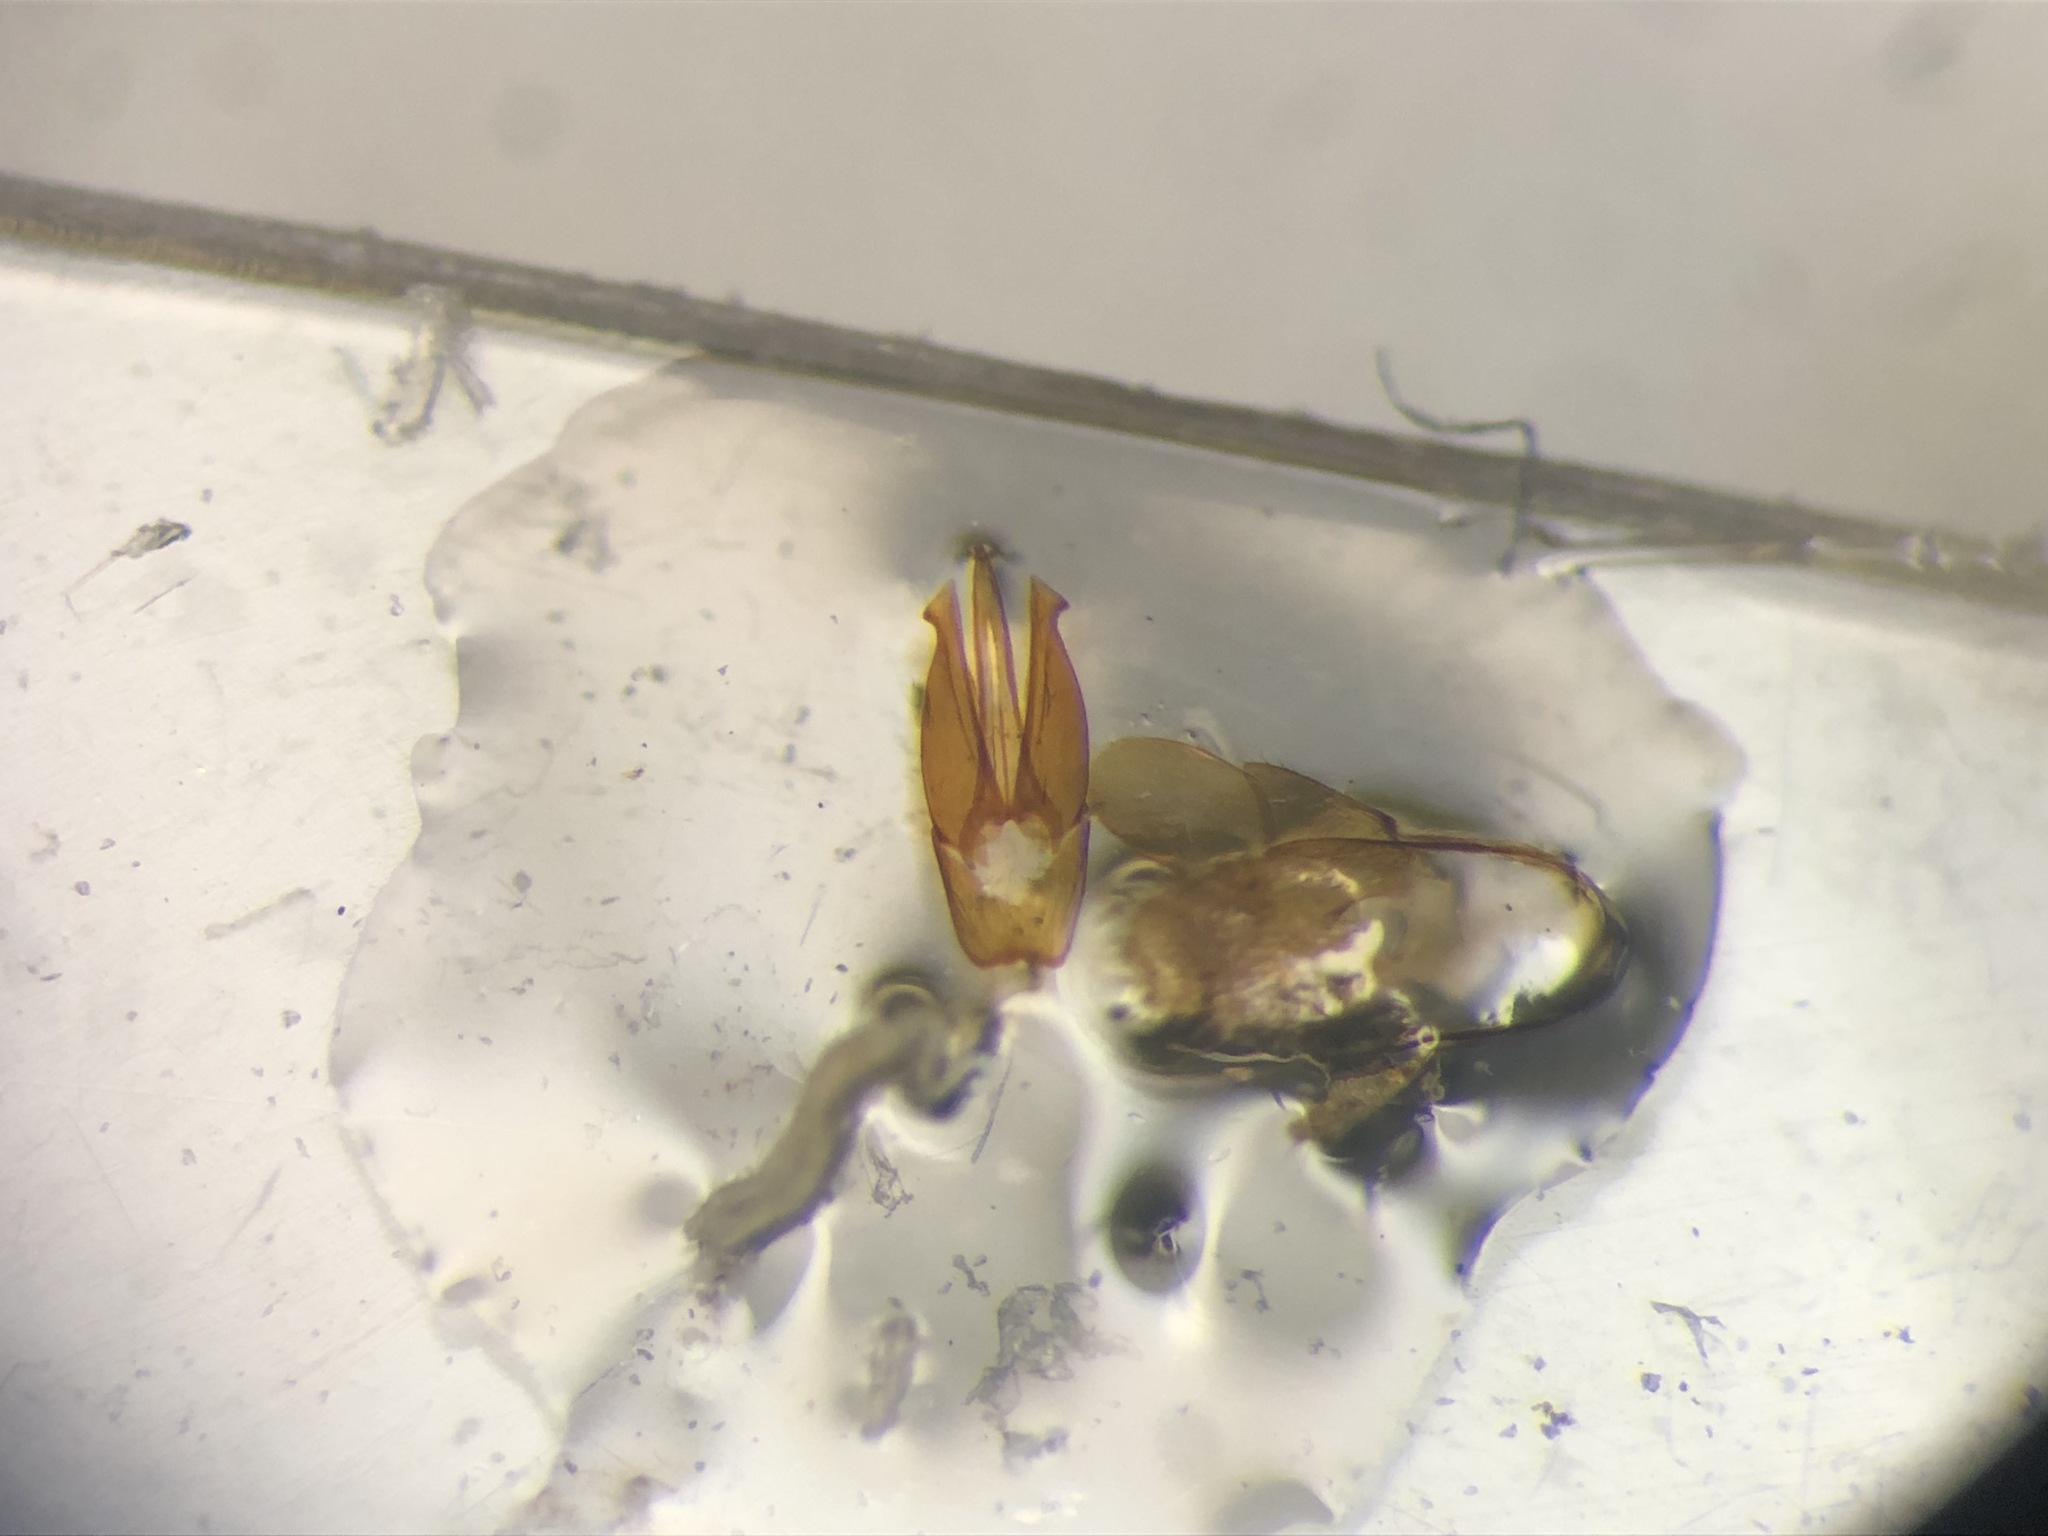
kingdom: Animalia
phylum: Arthropoda
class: Insecta
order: Coleoptera
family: Elateridae
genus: Ampedus
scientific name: Ampedus quebecensis
